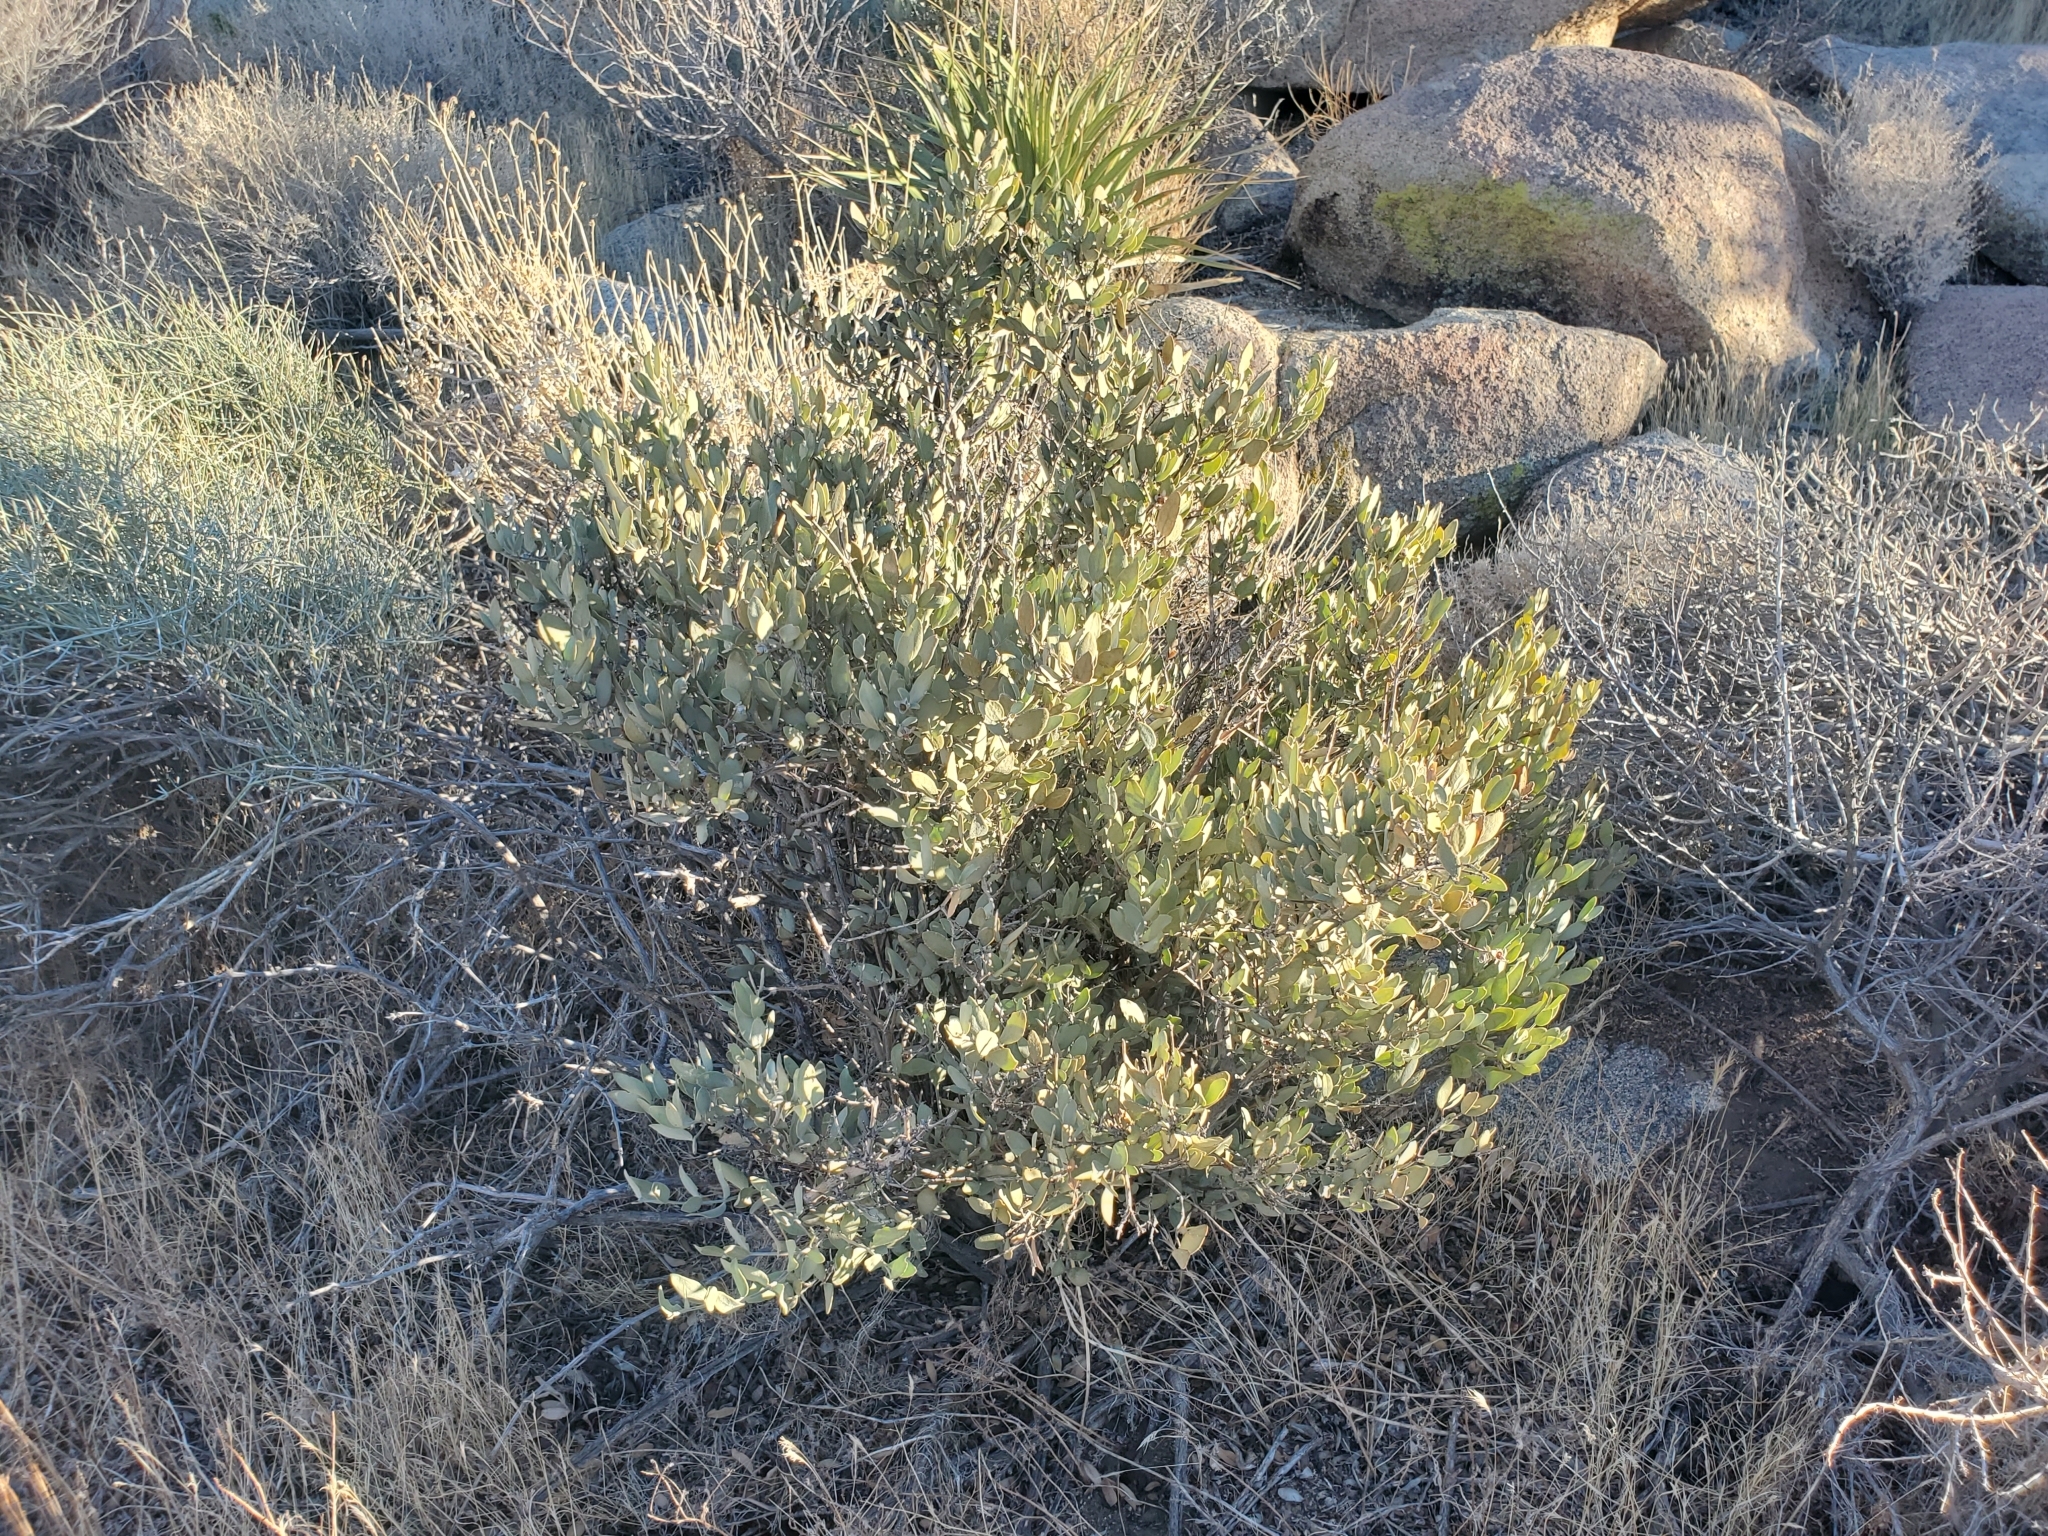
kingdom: Plantae
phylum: Tracheophyta
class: Magnoliopsida
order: Caryophyllales
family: Simmondsiaceae
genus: Simmondsia
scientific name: Simmondsia chinensis
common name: Jojoba
